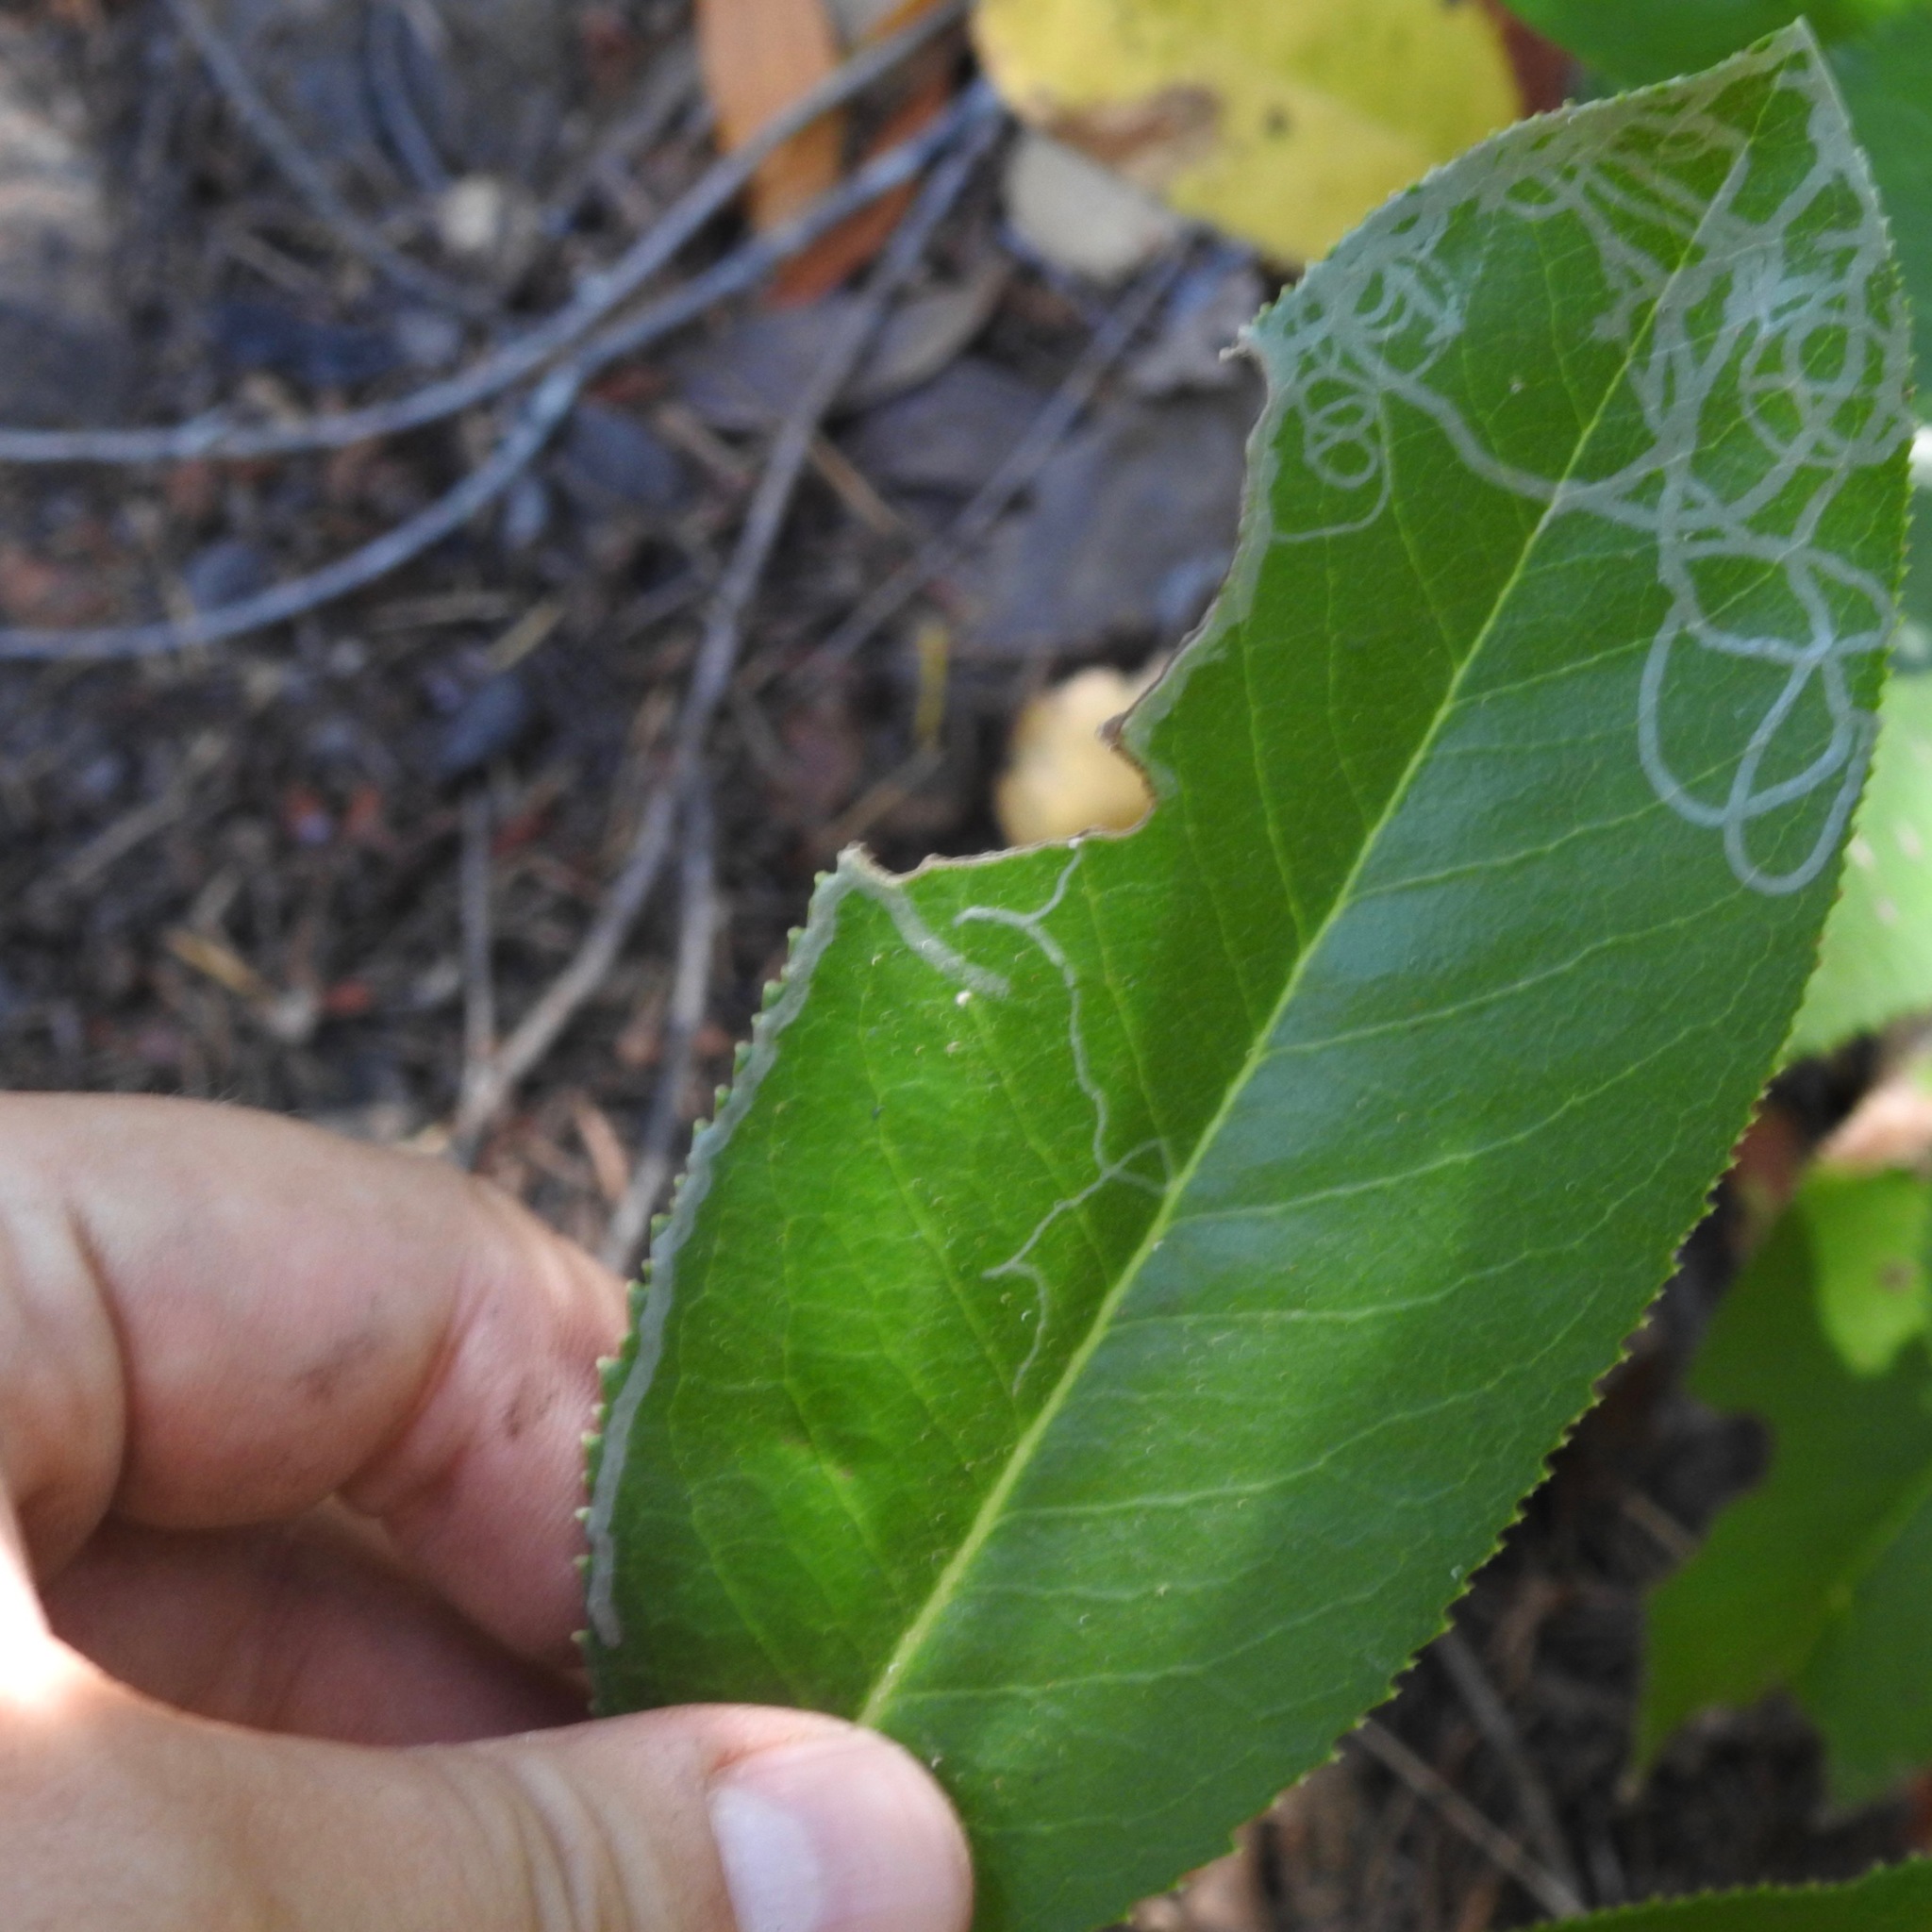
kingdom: Animalia
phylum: Arthropoda
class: Insecta
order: Lepidoptera
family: Gracillariidae
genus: Marmara
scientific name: Marmara arbutiella
